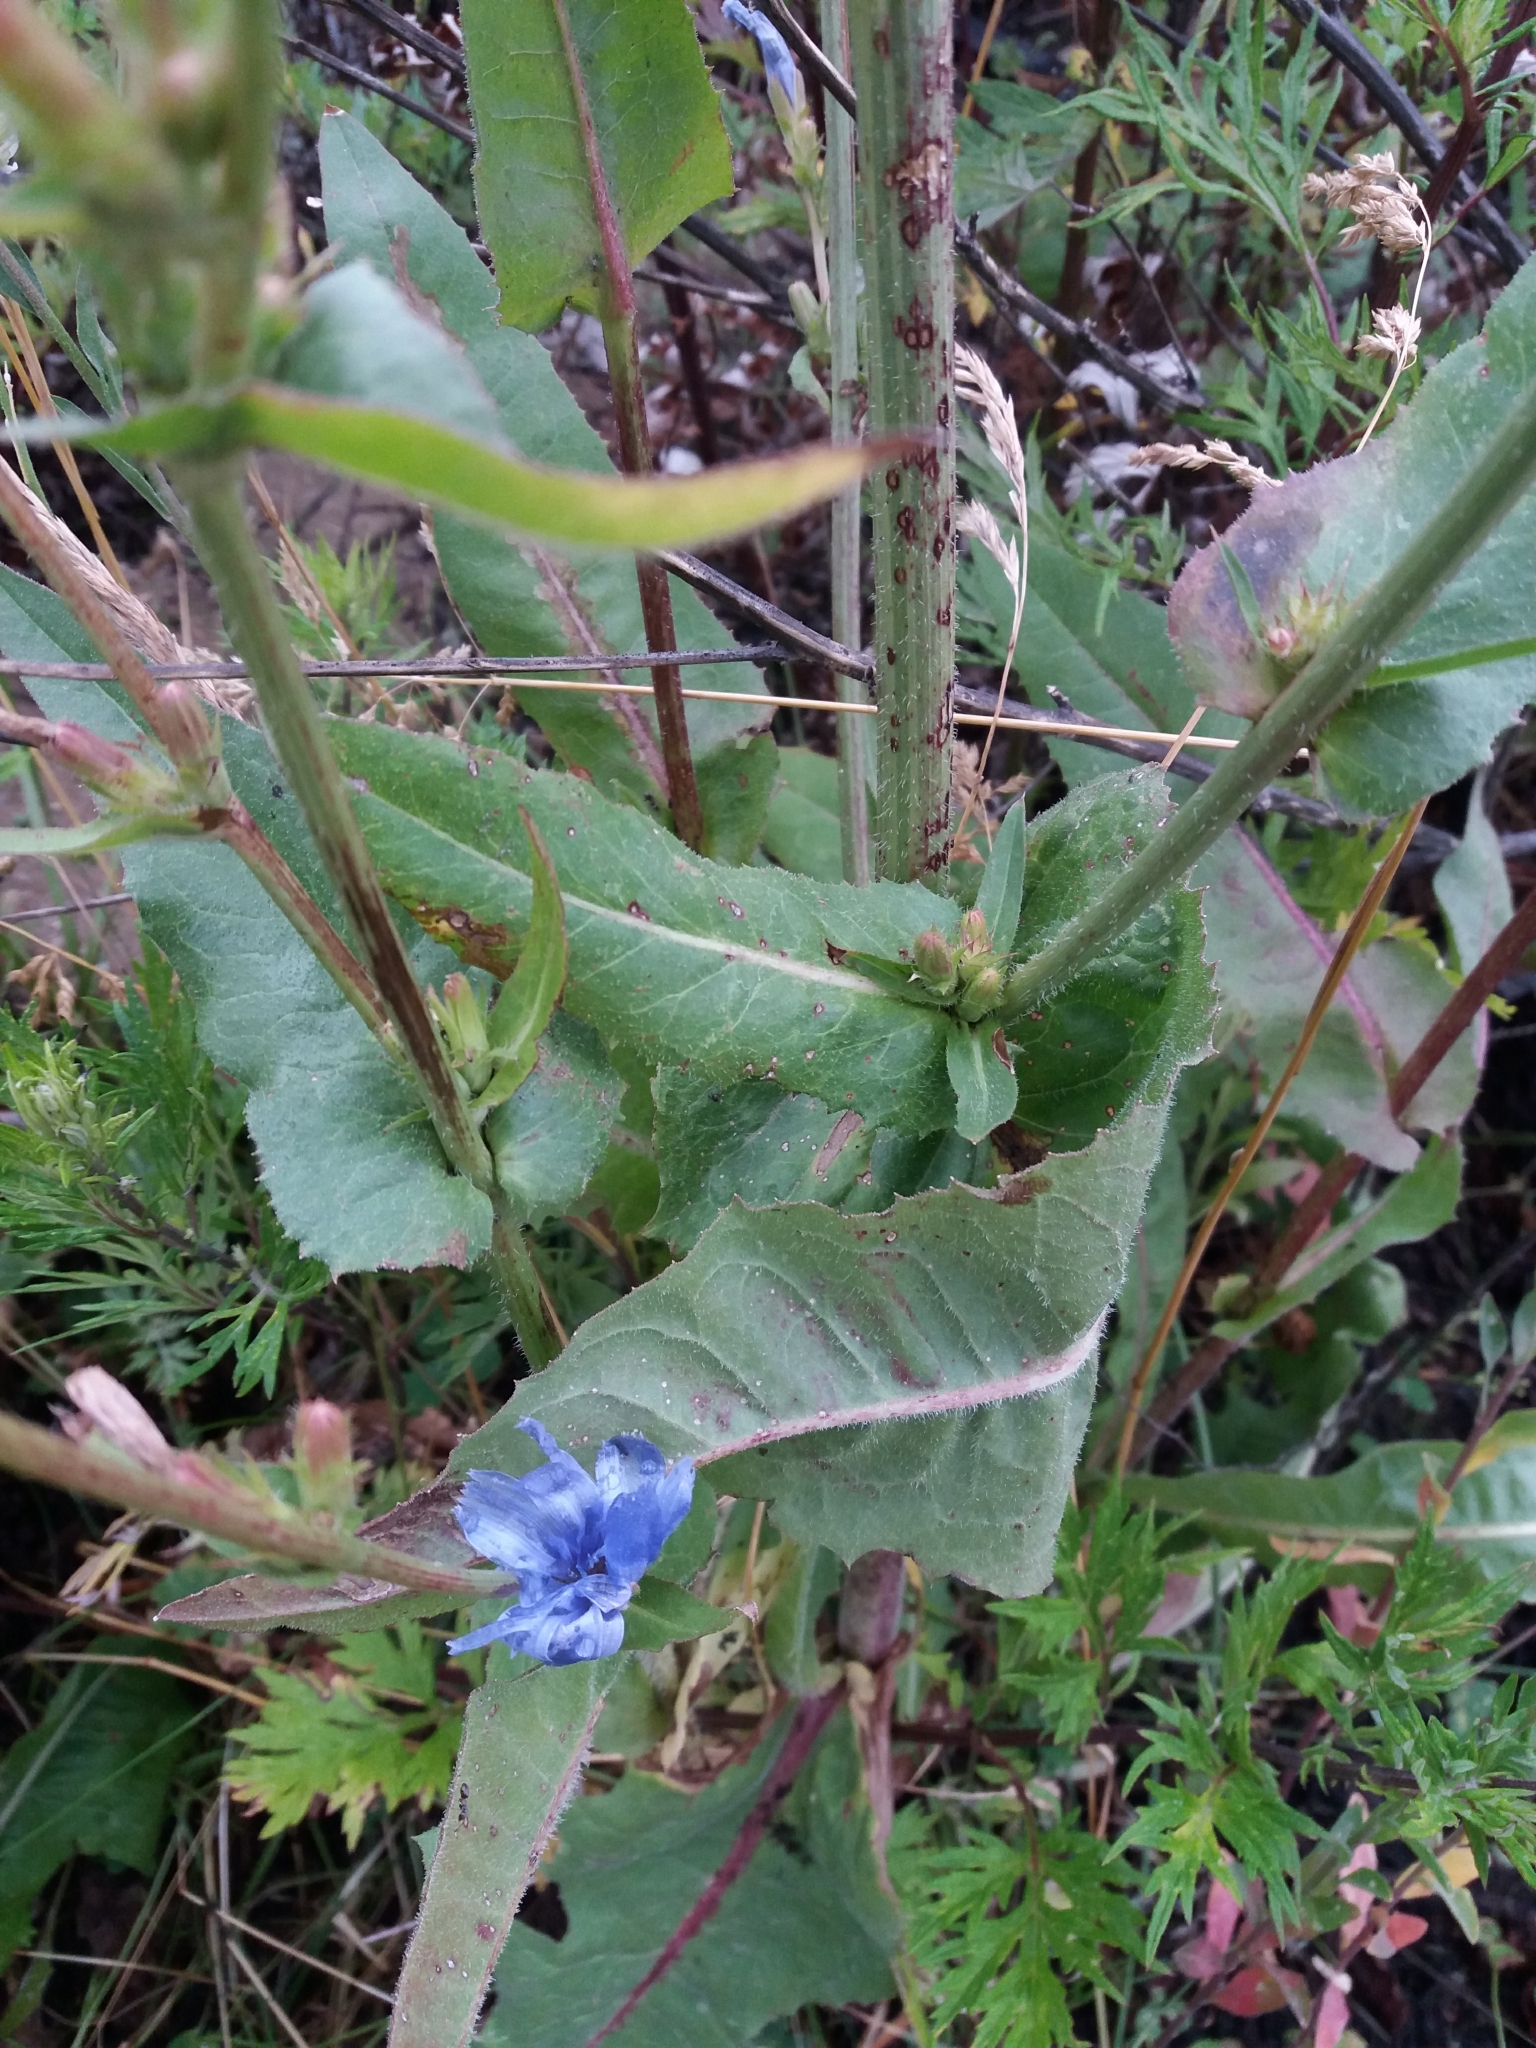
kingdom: Plantae
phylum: Tracheophyta
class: Magnoliopsida
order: Asterales
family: Asteraceae
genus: Cichorium
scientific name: Cichorium intybus
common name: Chicory
